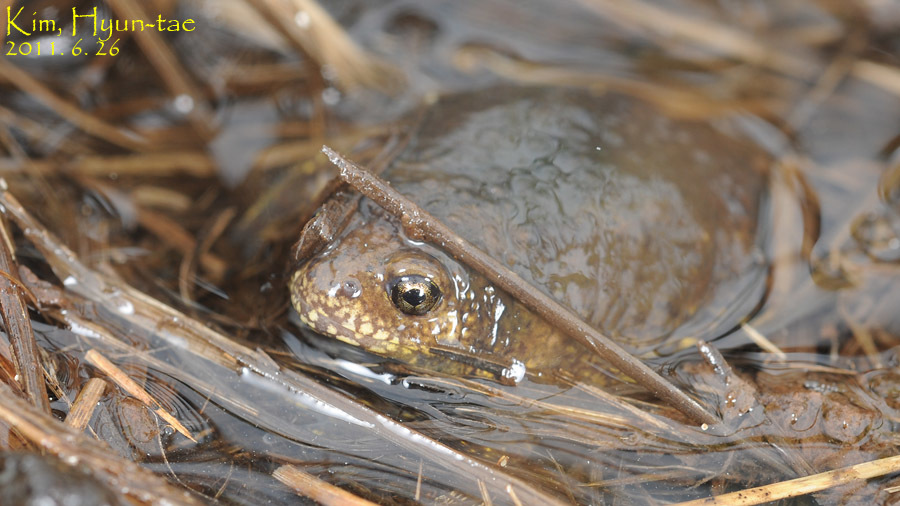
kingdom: Animalia
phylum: Chordata
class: Amphibia
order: Anura
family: Microhylidae
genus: Kaloula
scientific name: Kaloula borealis
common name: Boreal digging frog
